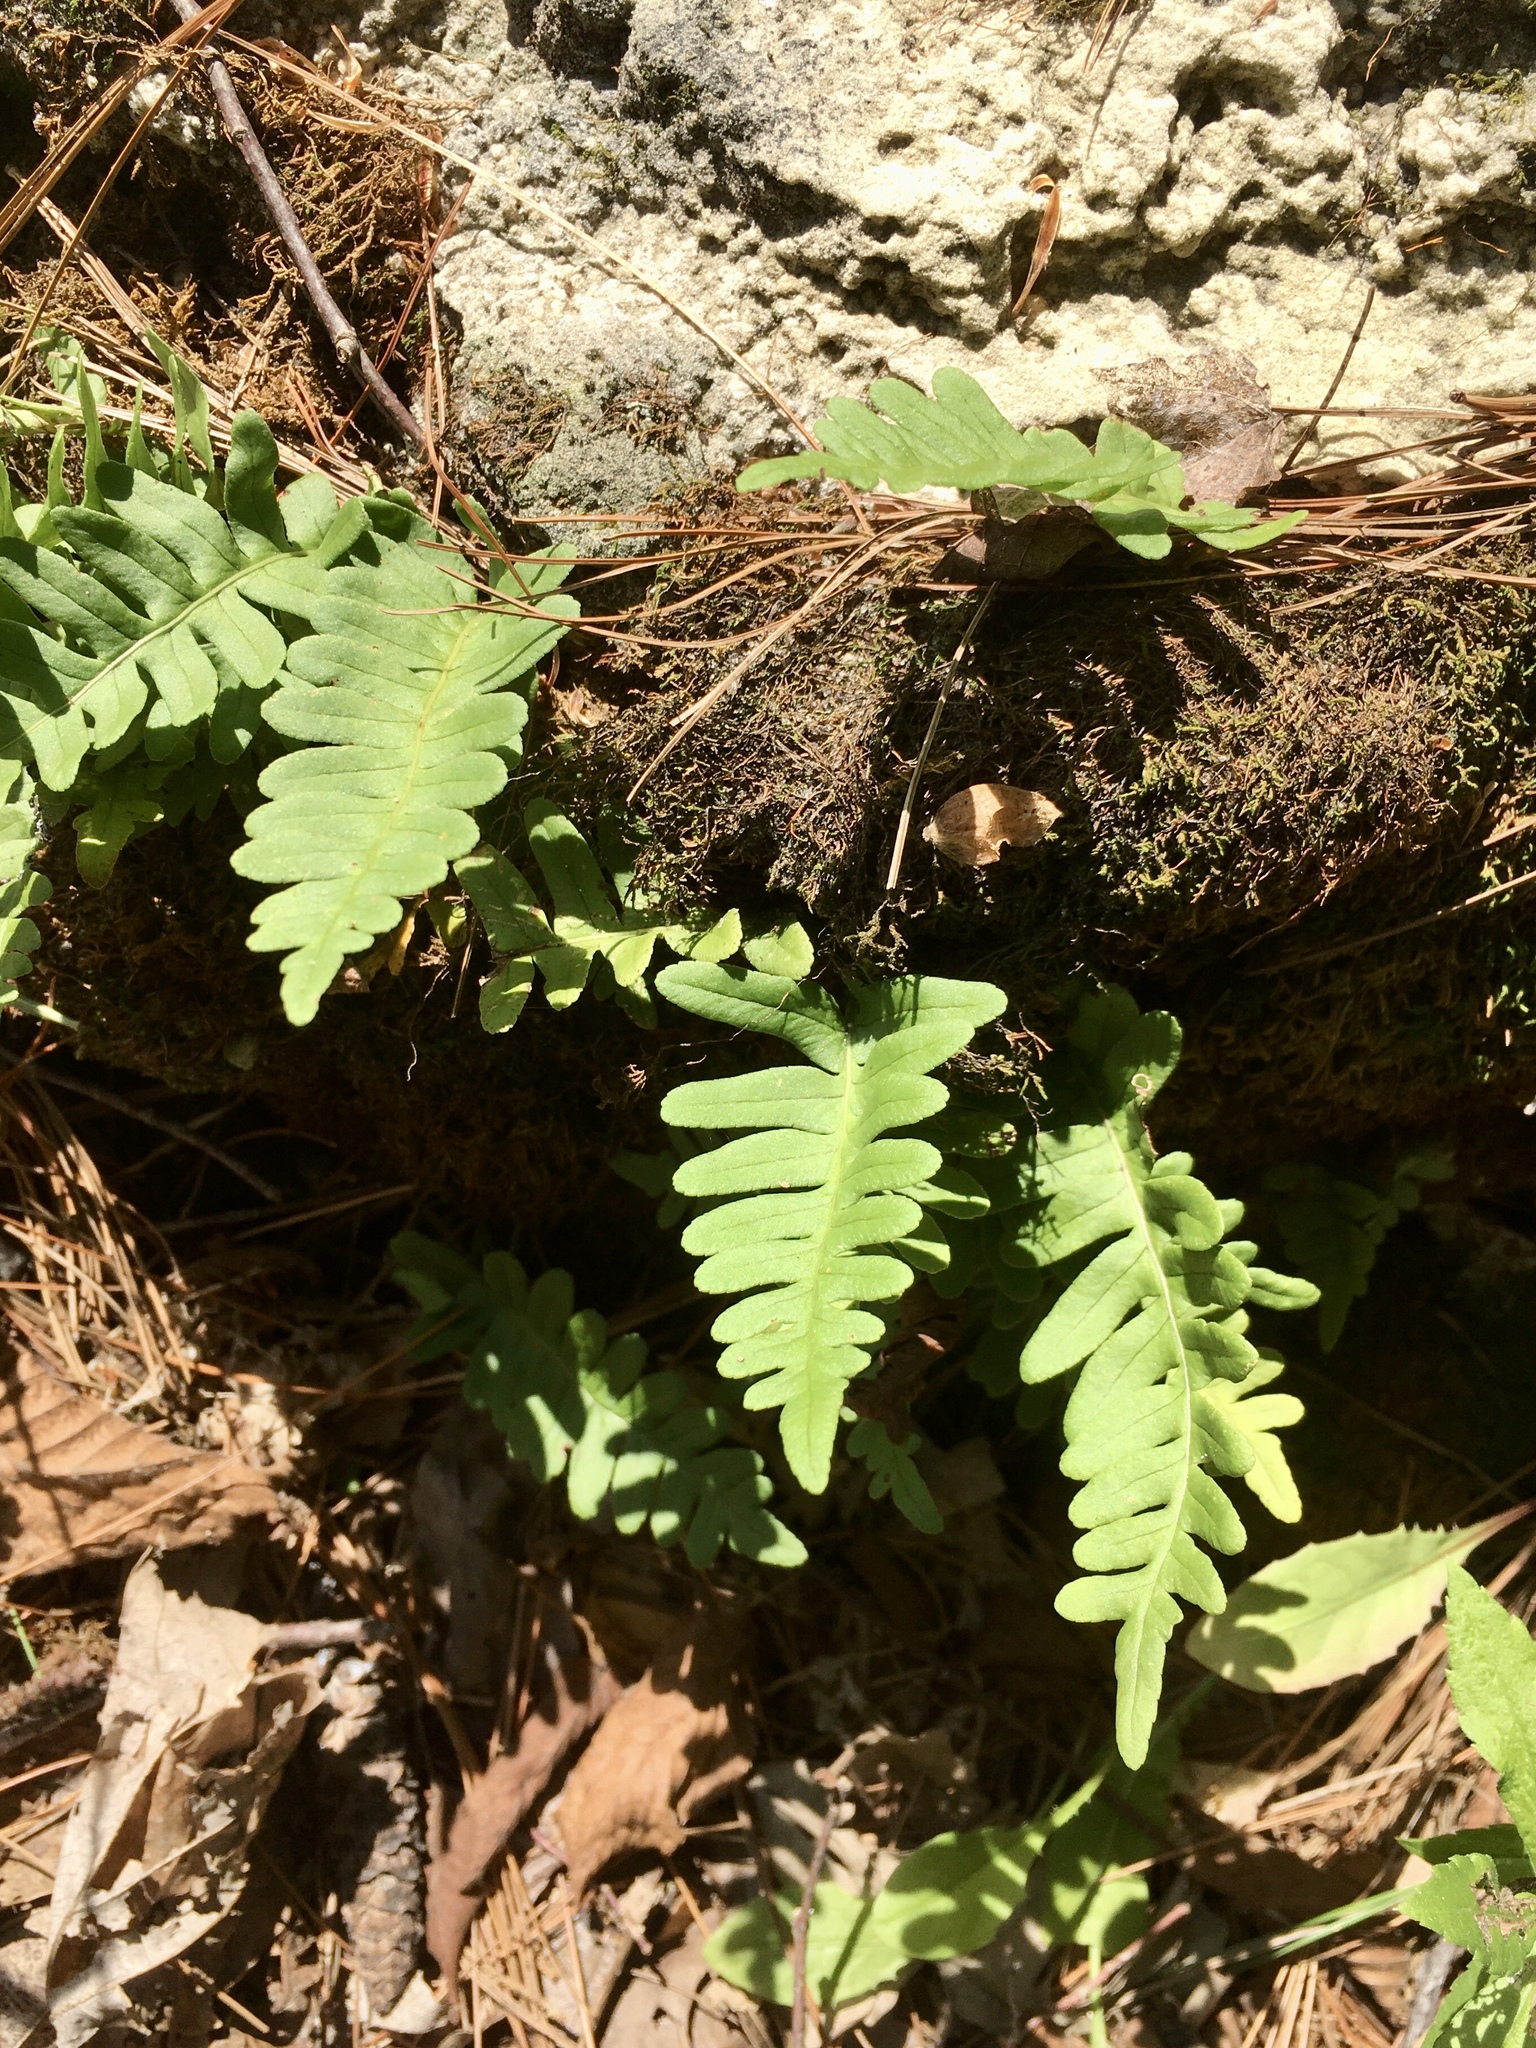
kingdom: Plantae
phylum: Tracheophyta
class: Polypodiopsida
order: Polypodiales
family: Polypodiaceae
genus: Polypodium
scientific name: Polypodium virginianum
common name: American wall fern
